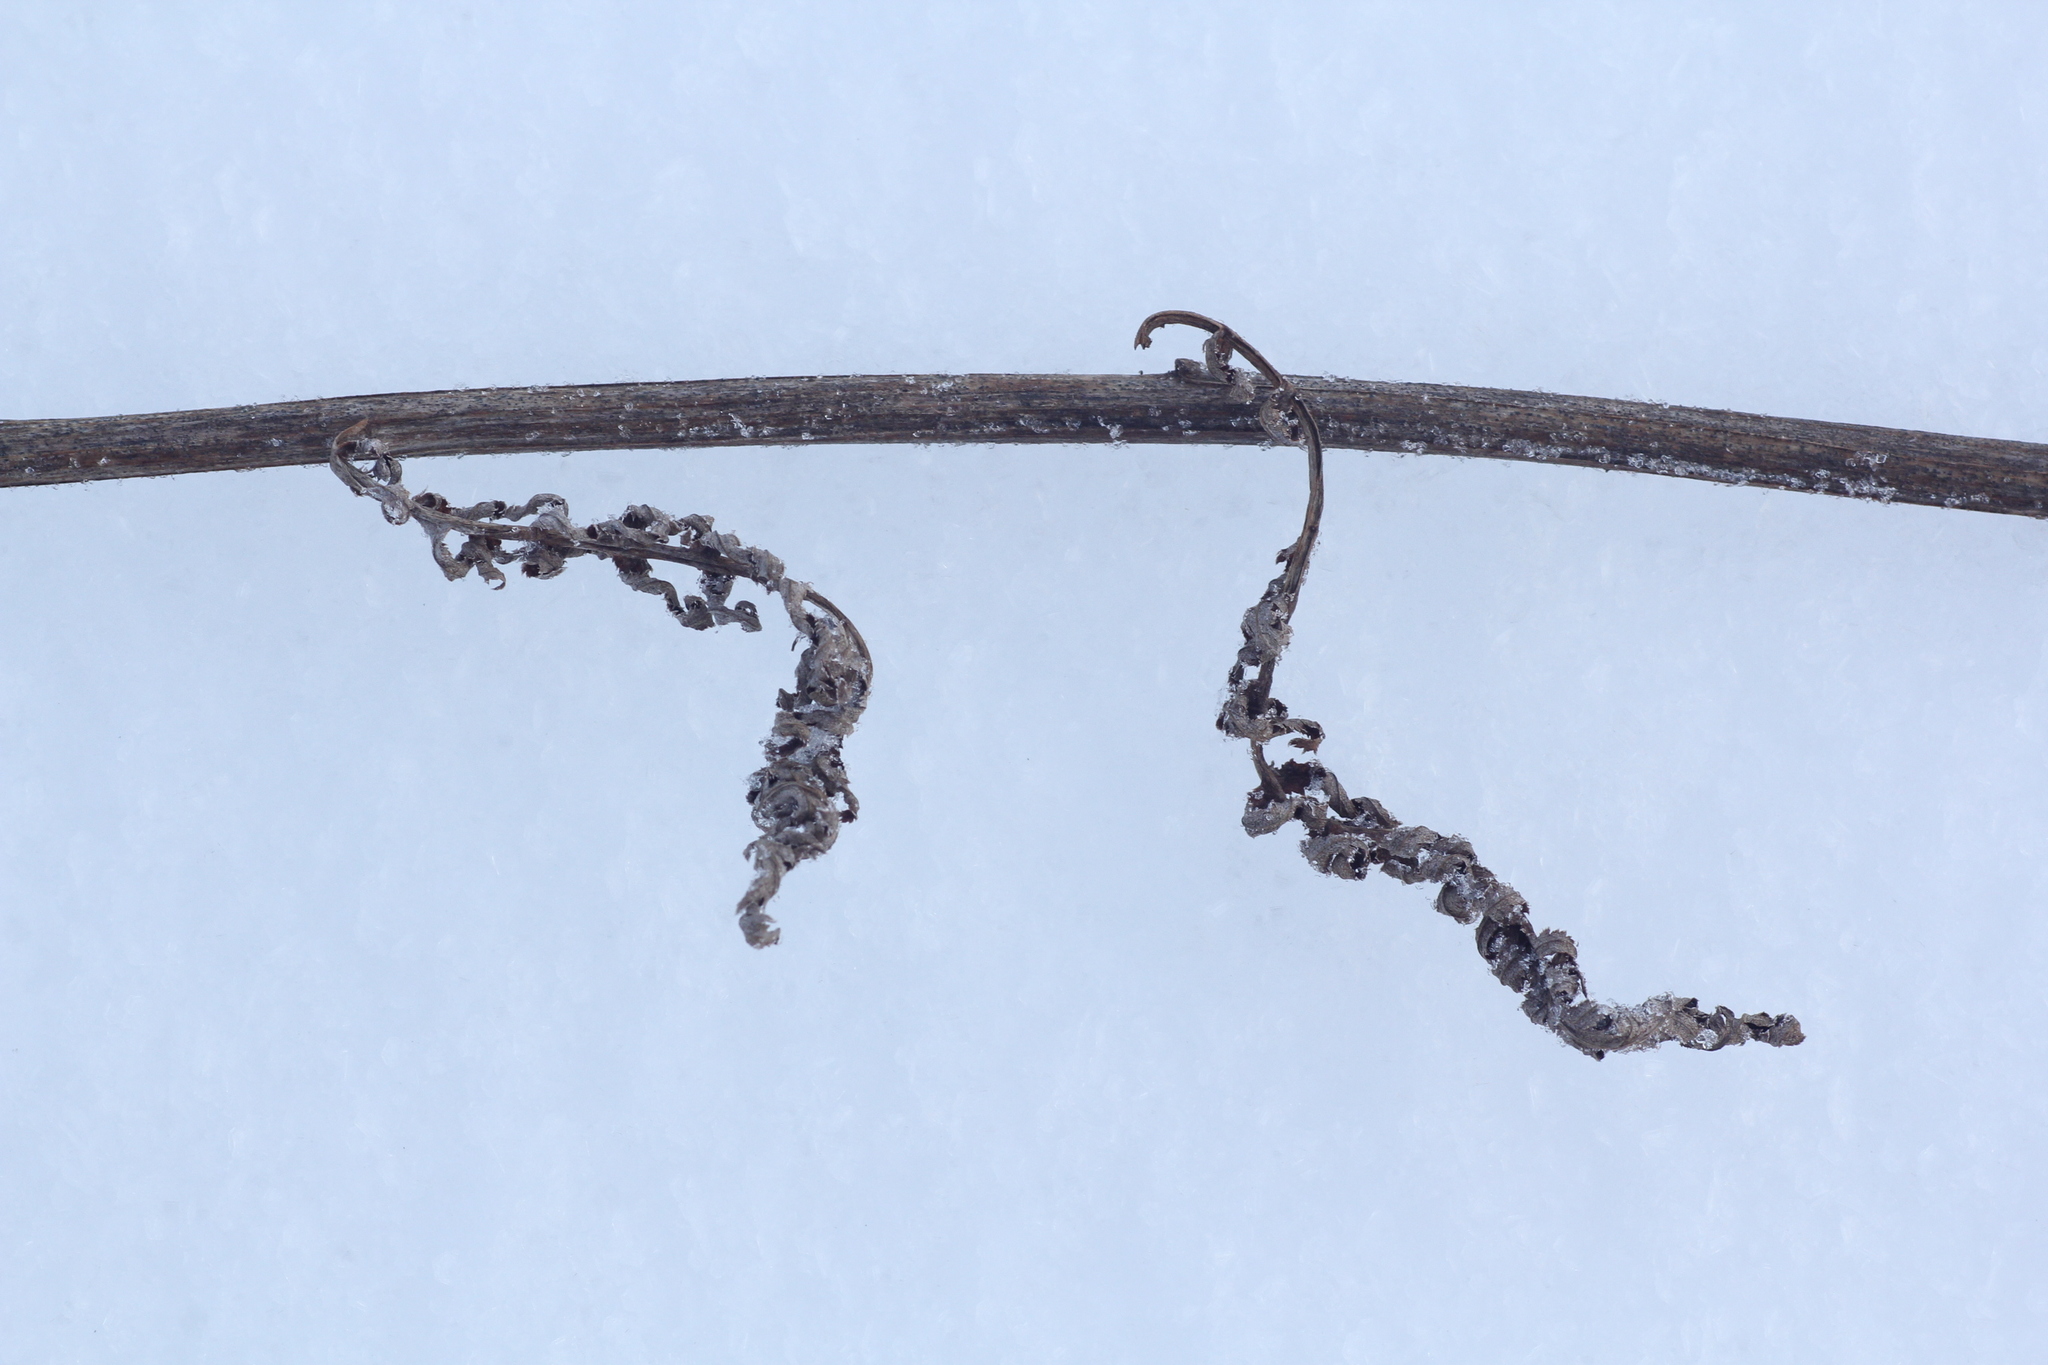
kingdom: Plantae
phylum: Tracheophyta
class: Magnoliopsida
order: Lamiales
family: Orobanchaceae
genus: Pedicularis
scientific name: Pedicularis elata
